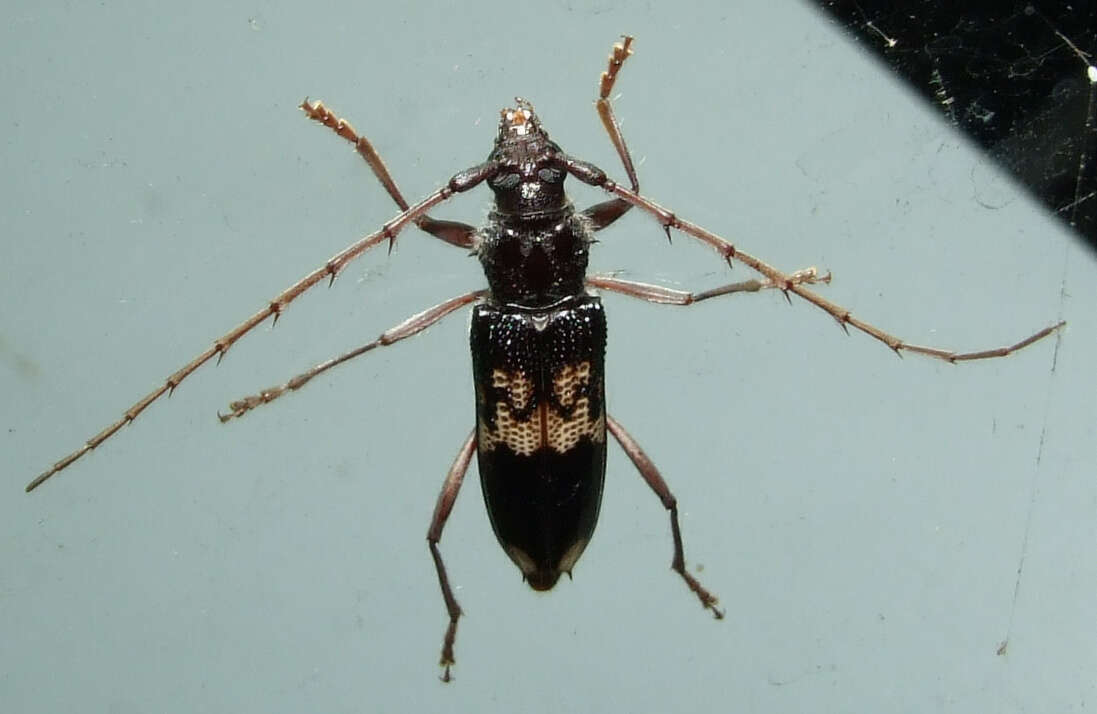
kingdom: Animalia
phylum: Arthropoda
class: Insecta
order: Coleoptera
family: Cerambycidae
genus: Phoracantha
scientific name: Phoracantha semipunctata
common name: Eucalyptus longhorn borer
